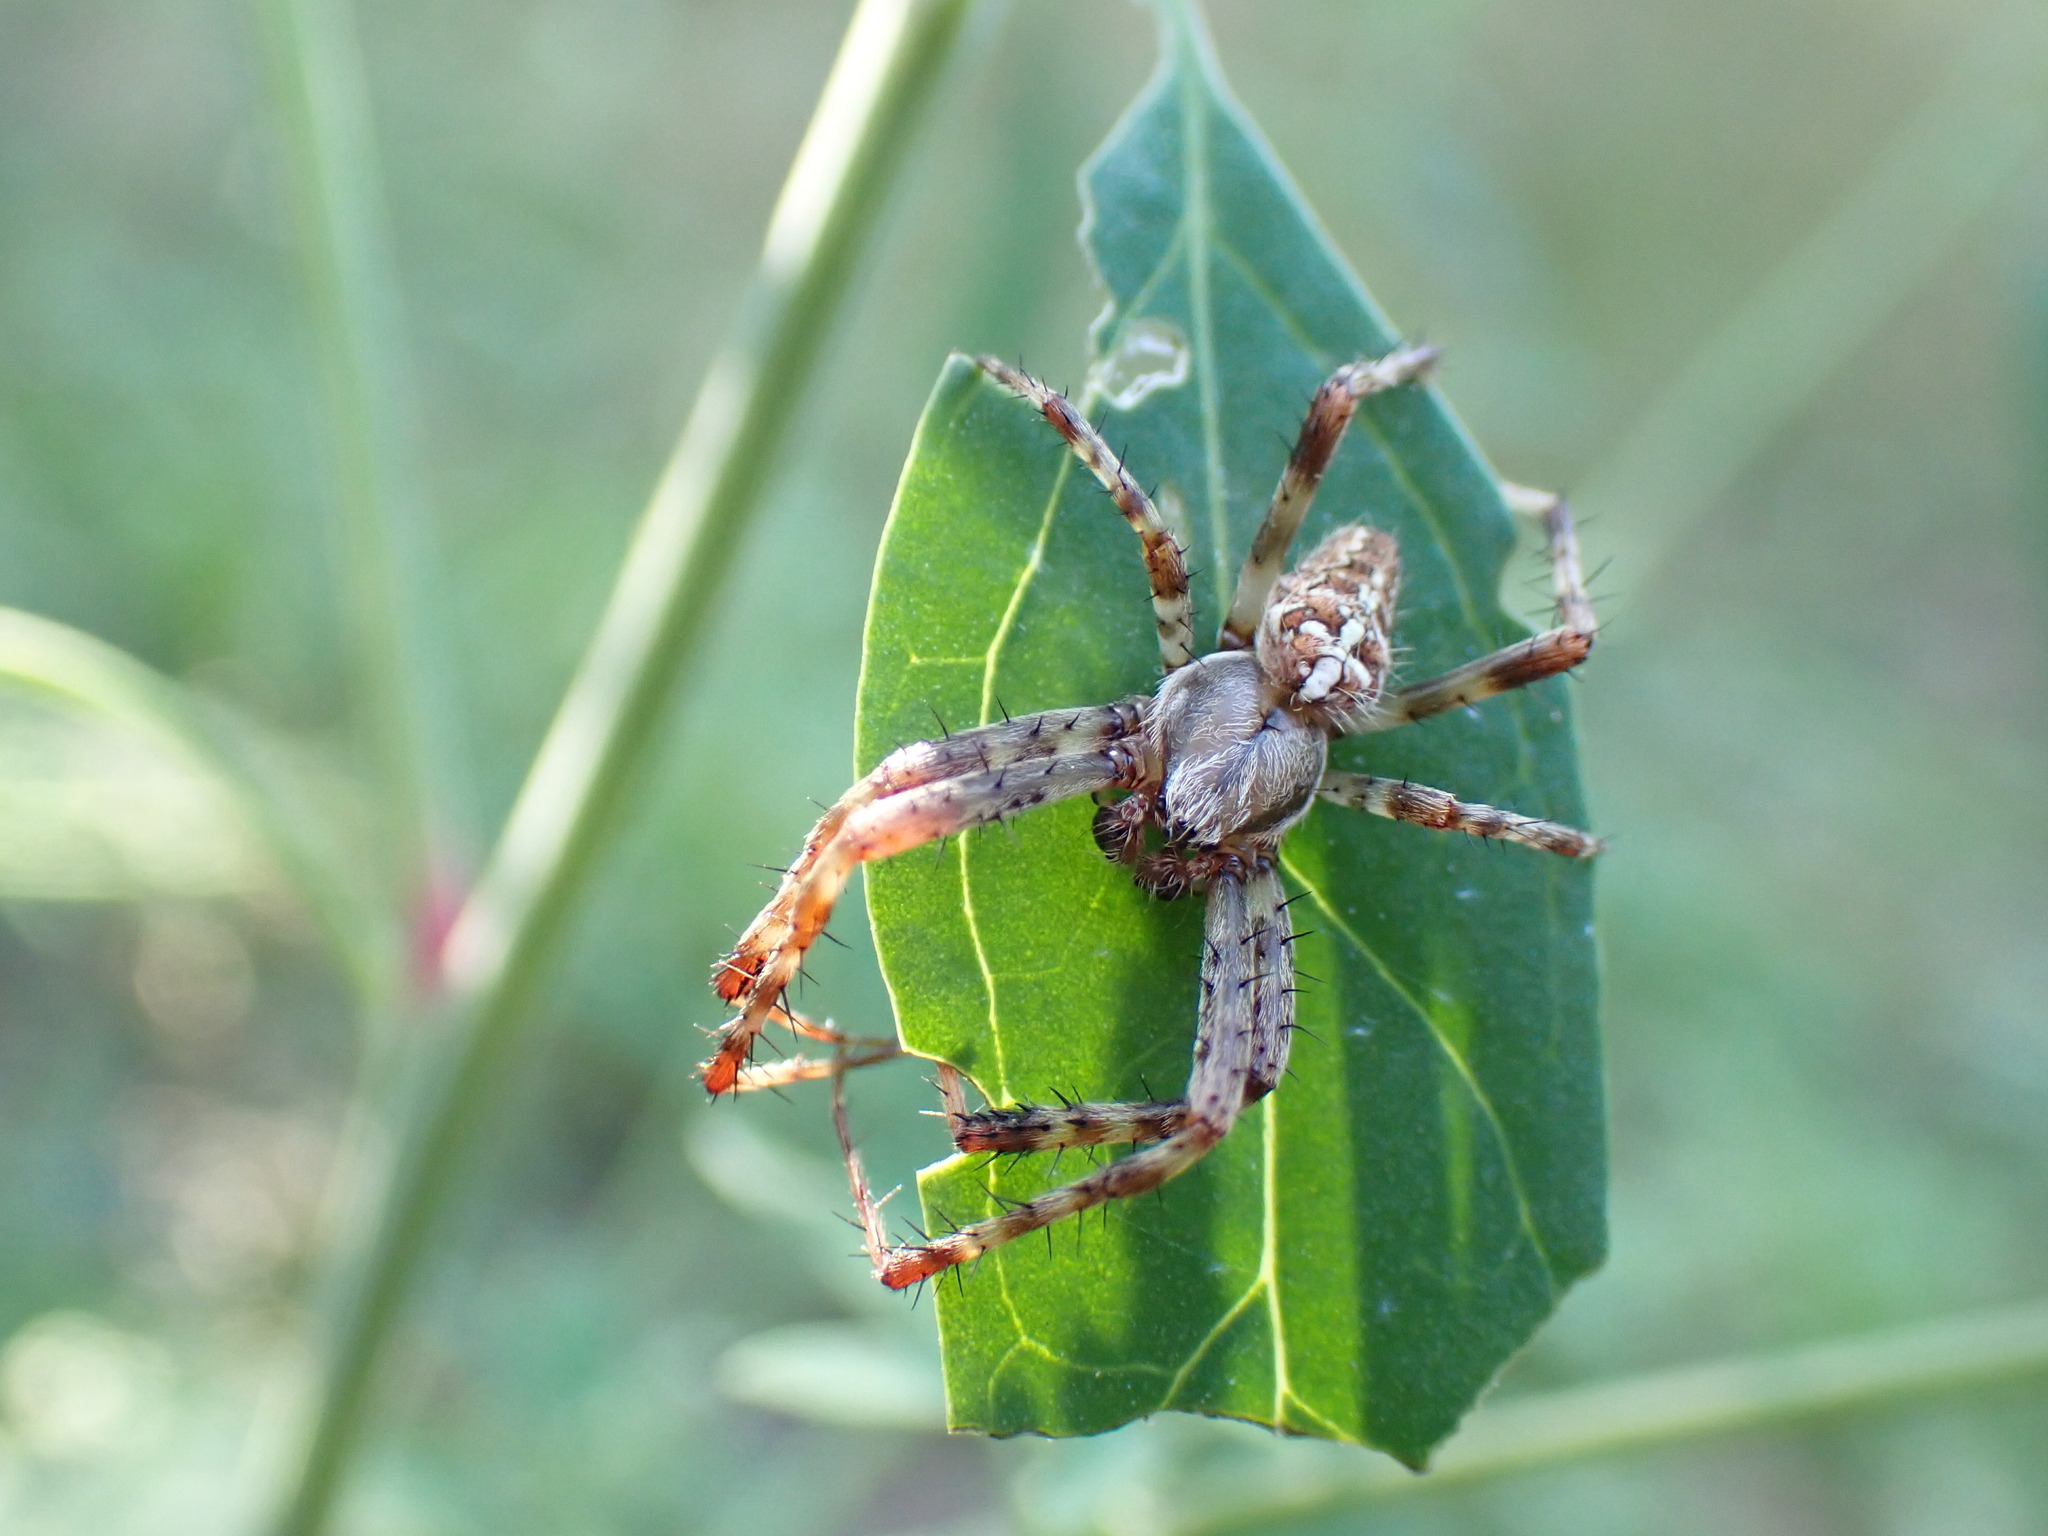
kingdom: Animalia
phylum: Arthropoda
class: Arachnida
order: Araneae
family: Araneidae
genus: Araneus
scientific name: Araneus diadematus
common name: Cross orbweaver
